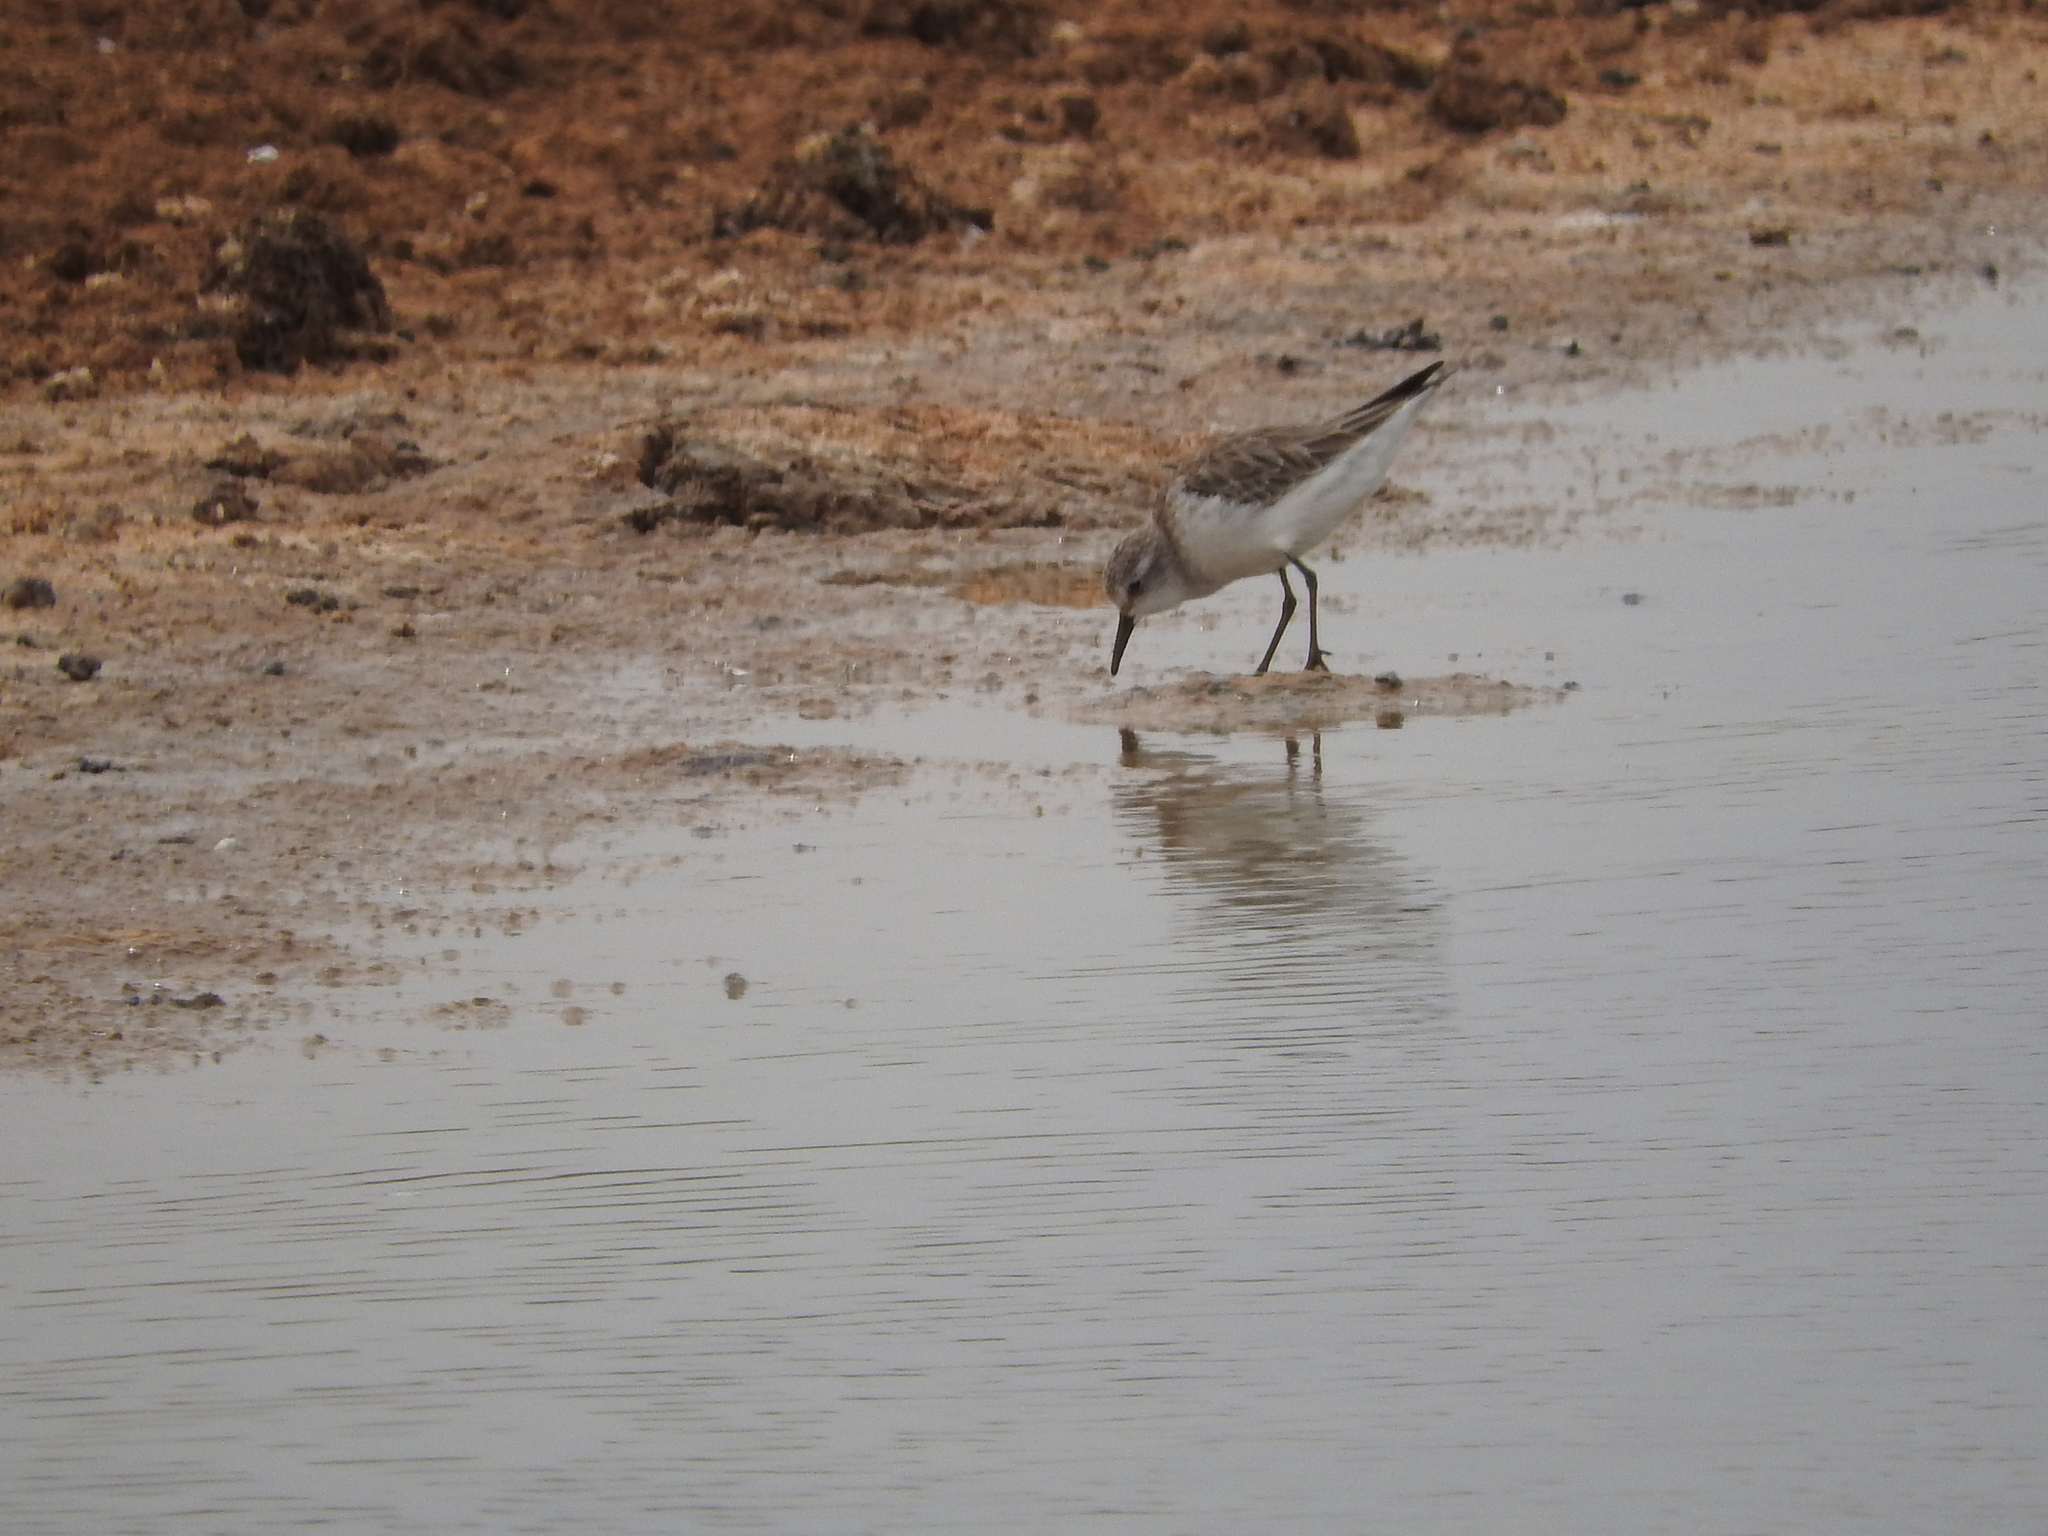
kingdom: Animalia
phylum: Chordata
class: Aves
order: Charadriiformes
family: Scolopacidae
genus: Calidris
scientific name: Calidris minuta
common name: Little stint
